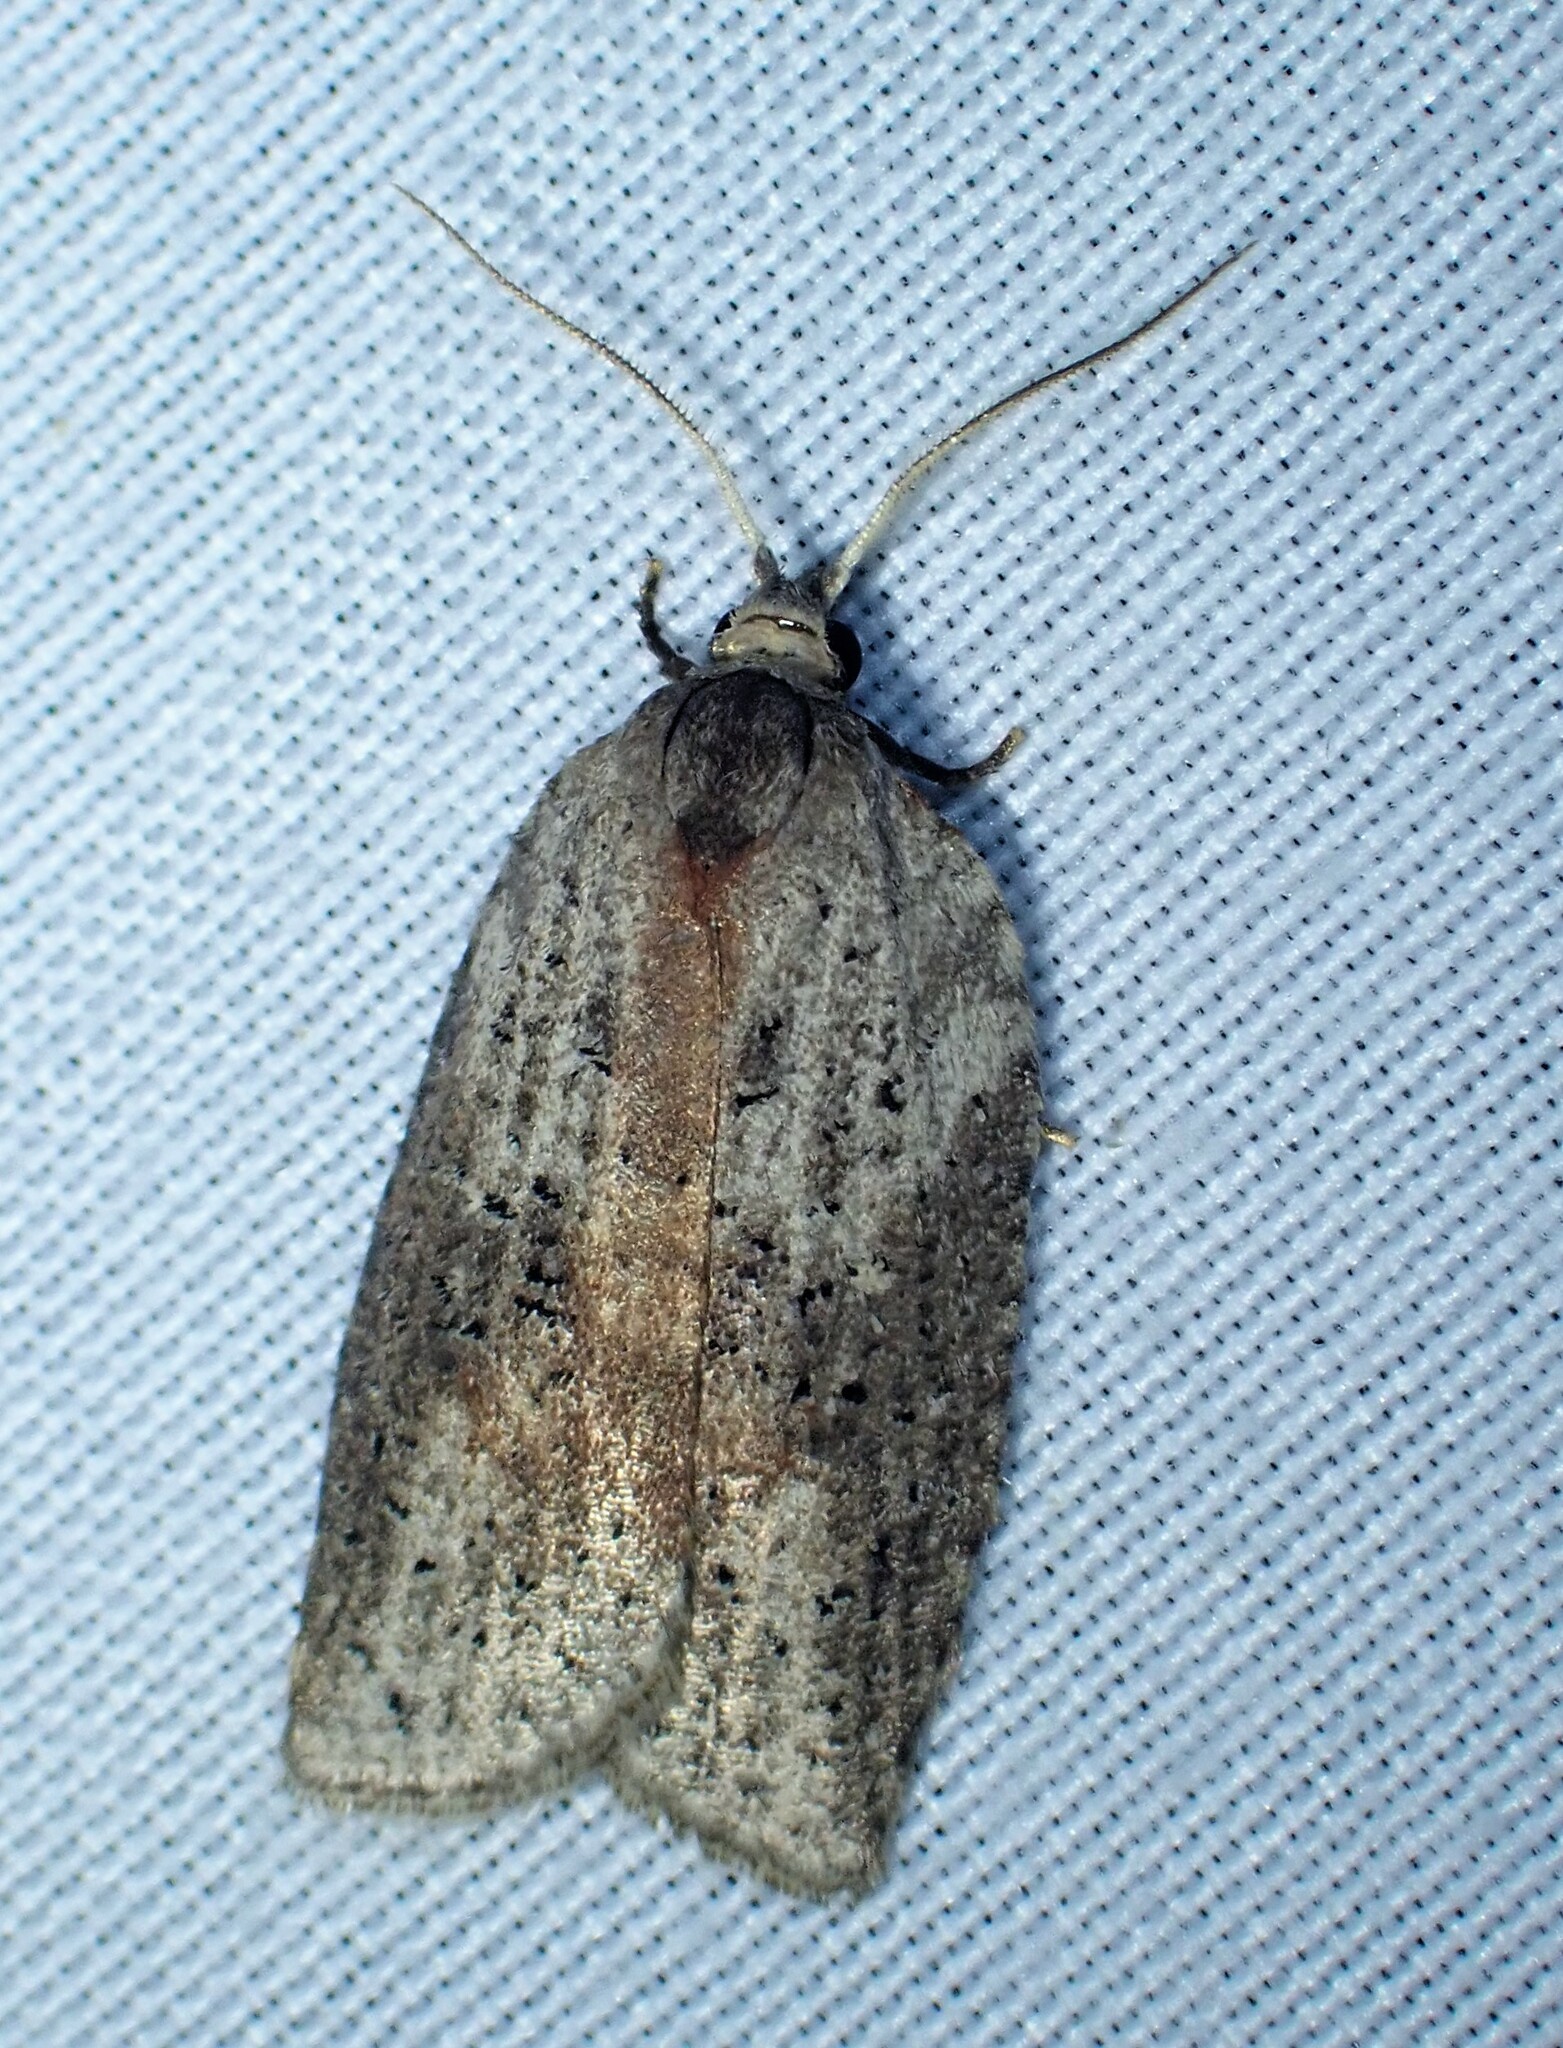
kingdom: Animalia
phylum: Arthropoda
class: Insecta
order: Lepidoptera
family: Tortricidae
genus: Amorbia
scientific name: Amorbia humerosana
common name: White-lined leafroller moth
